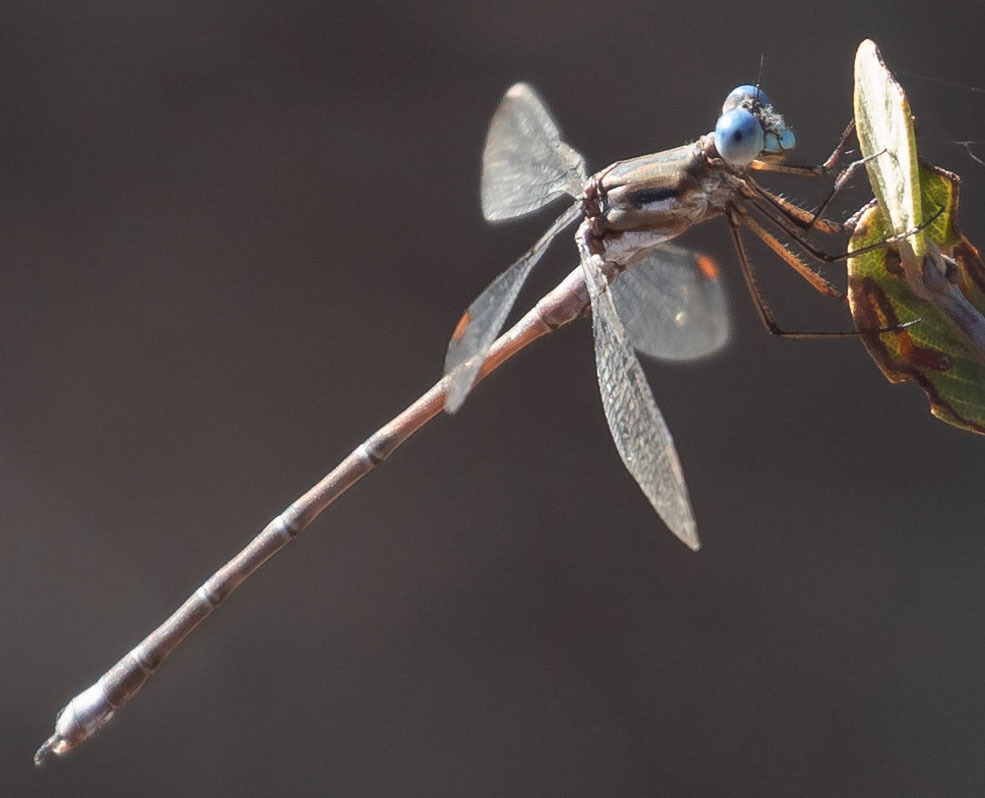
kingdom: Animalia
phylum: Arthropoda
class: Insecta
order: Odonata
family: Lestidae
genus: Archilestes
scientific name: Archilestes californicus
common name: California spreadwing
